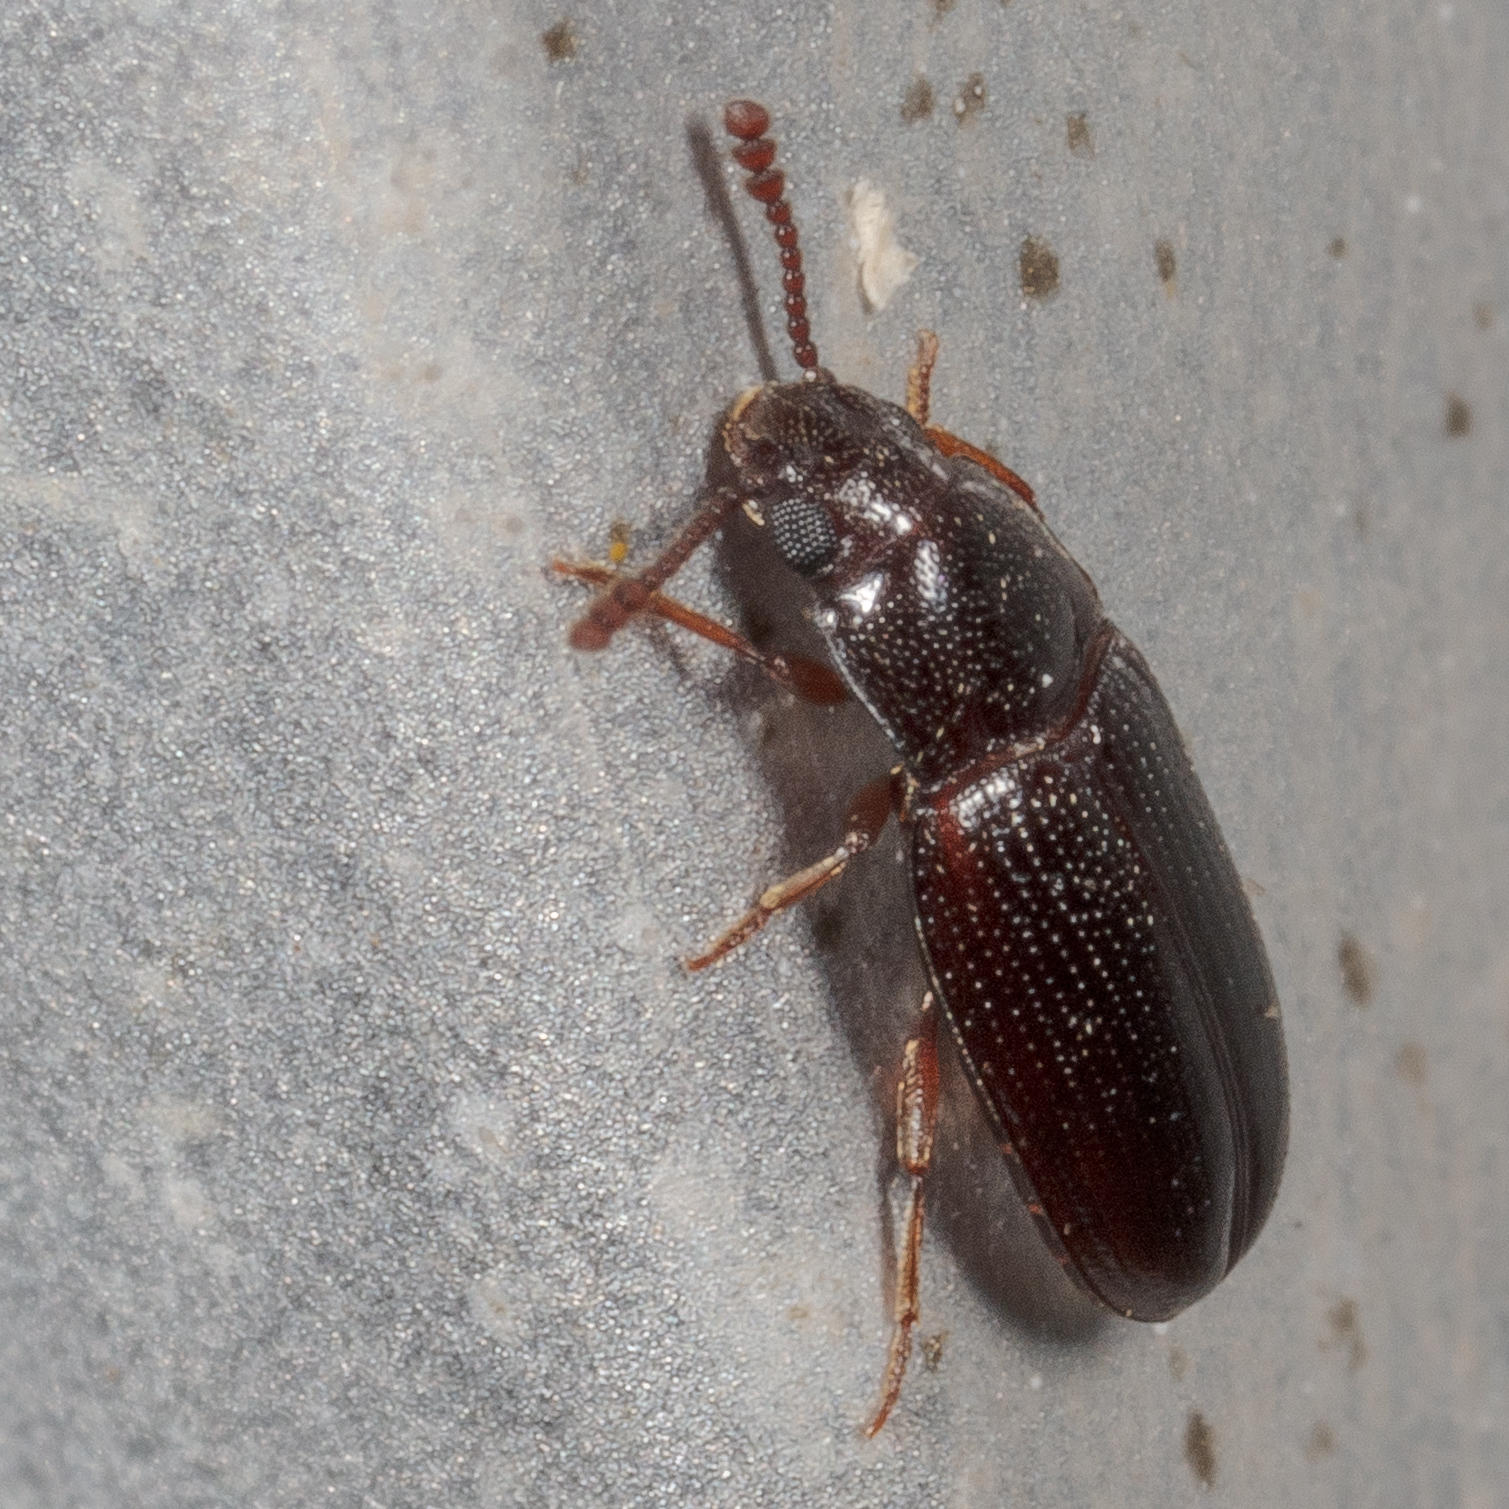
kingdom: Animalia
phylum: Arthropoda
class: Insecta
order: Coleoptera
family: Erotylidae
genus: Pharaxonotha
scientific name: Pharaxonotha kirschii
